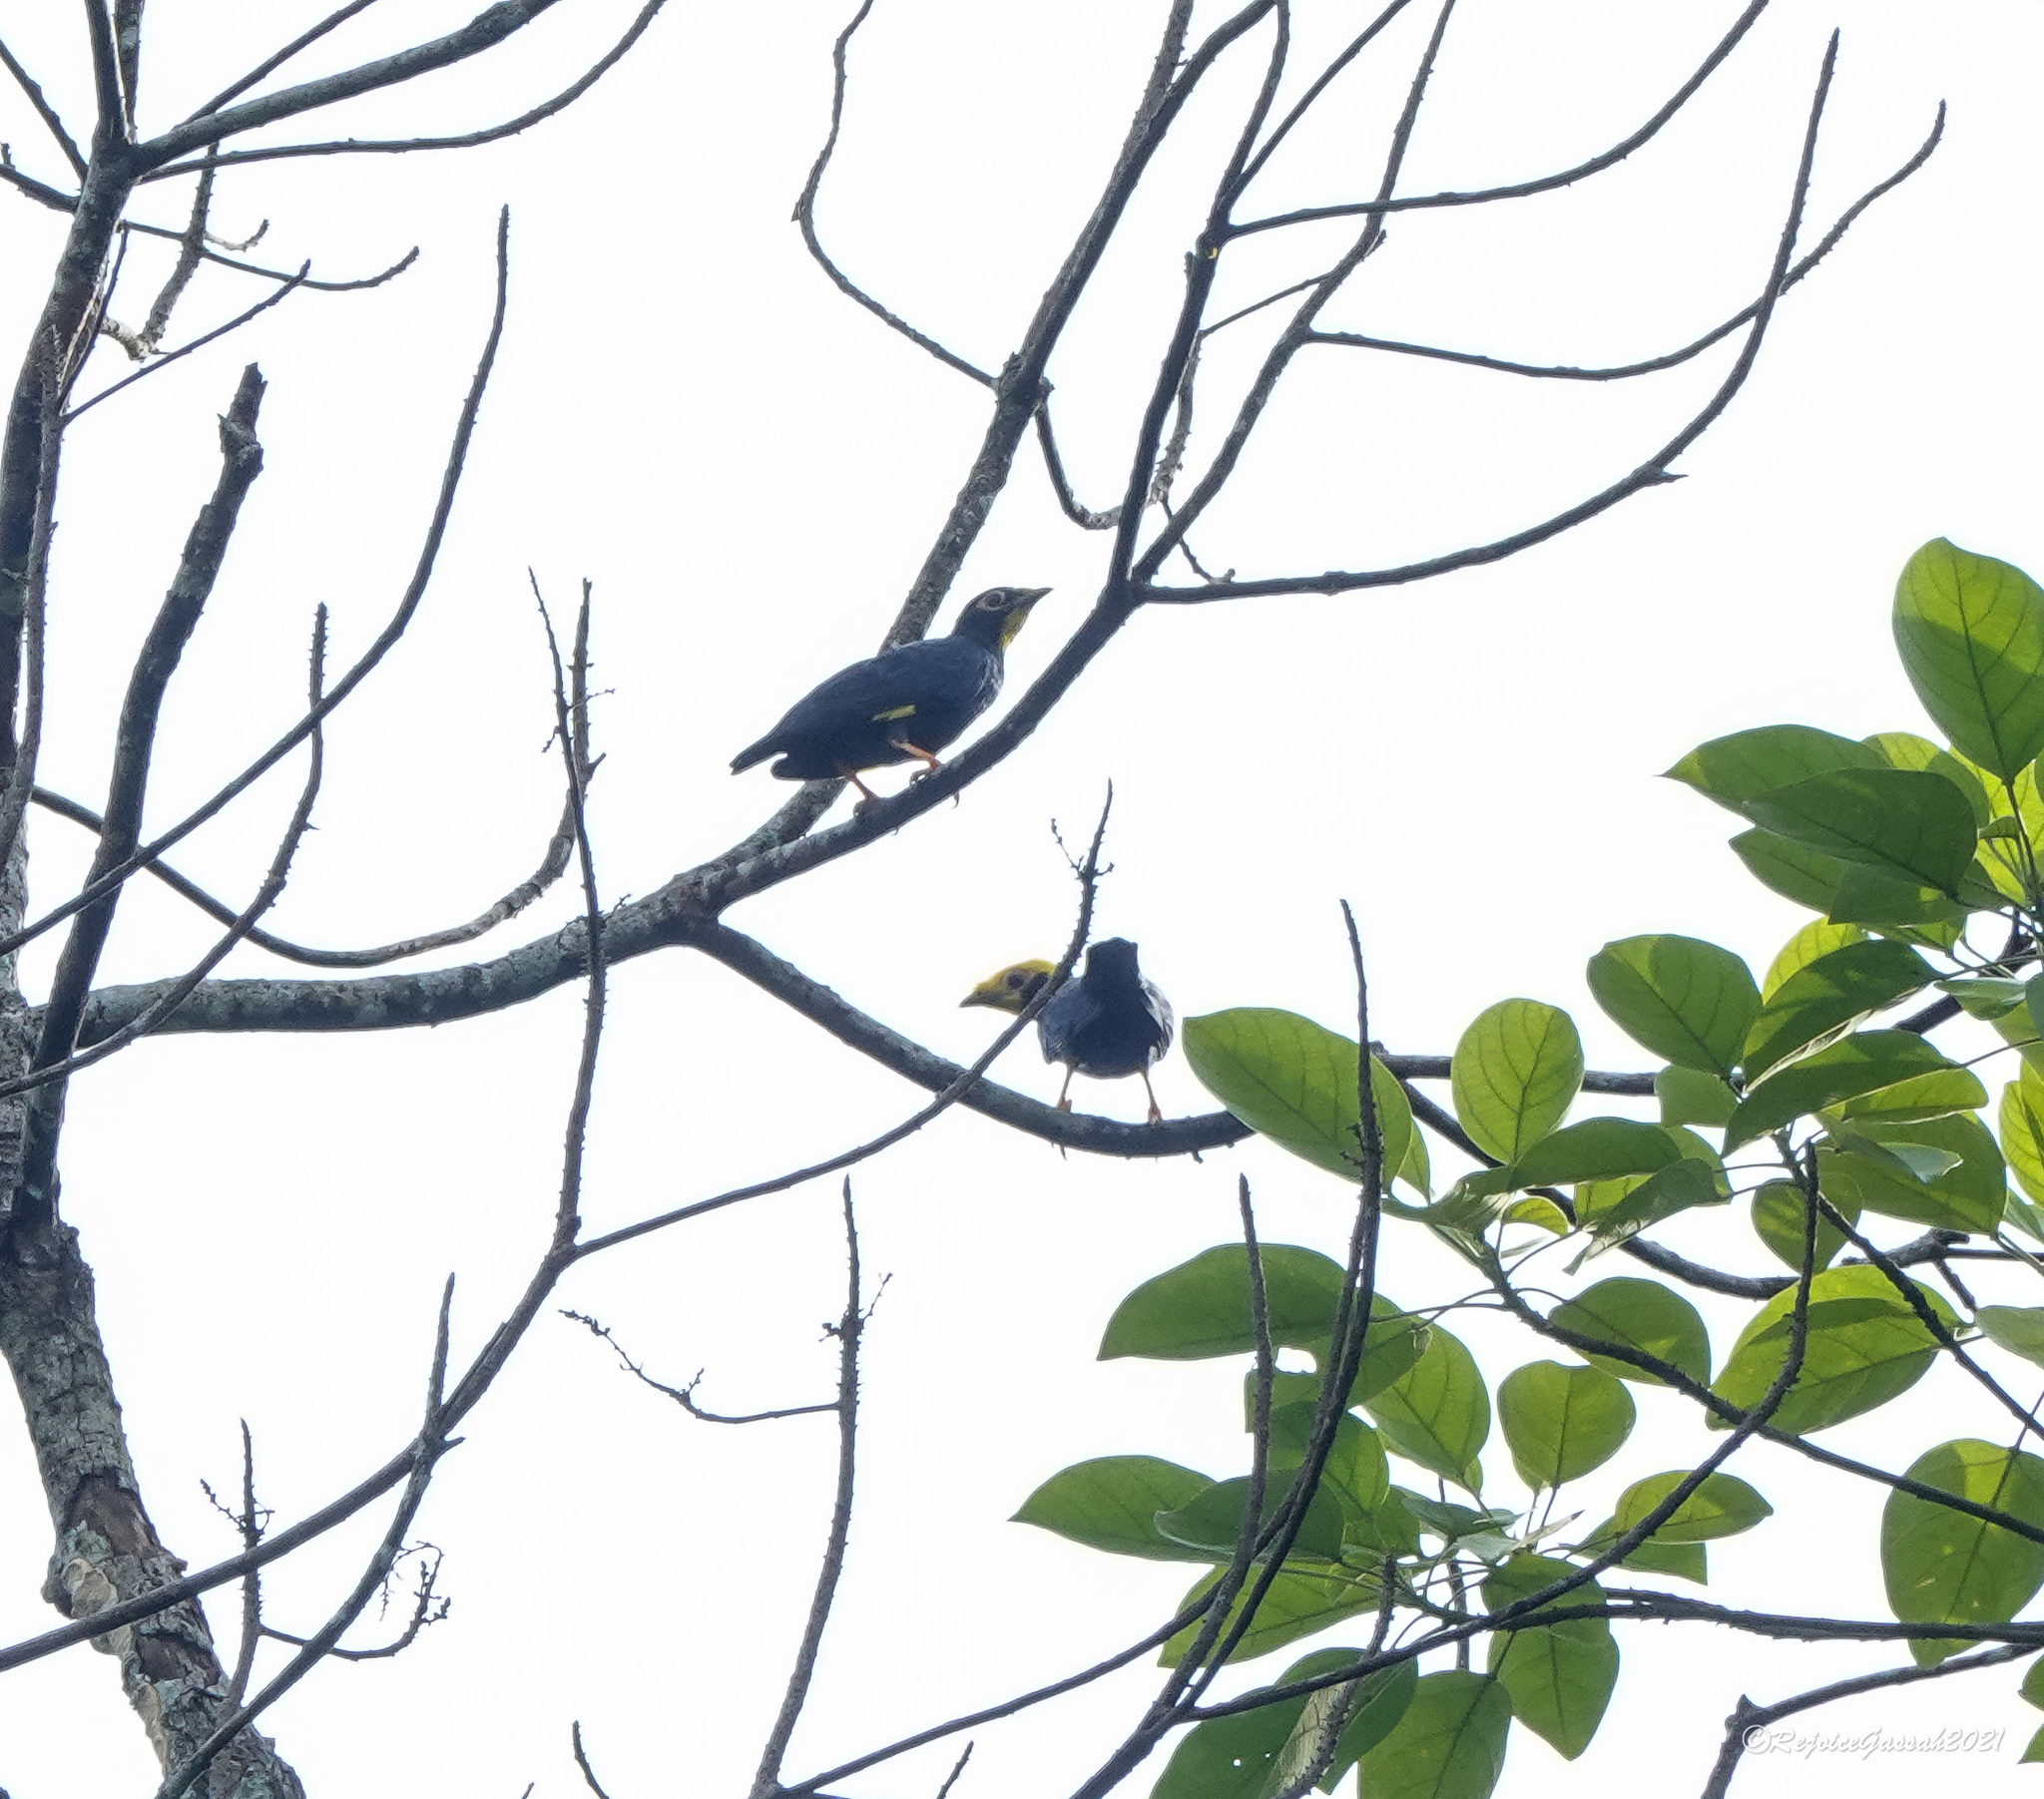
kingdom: Animalia
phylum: Chordata
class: Aves
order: Passeriformes
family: Sturnidae
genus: Ampeliceps
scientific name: Ampeliceps coronatus
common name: Golden-crested myna
